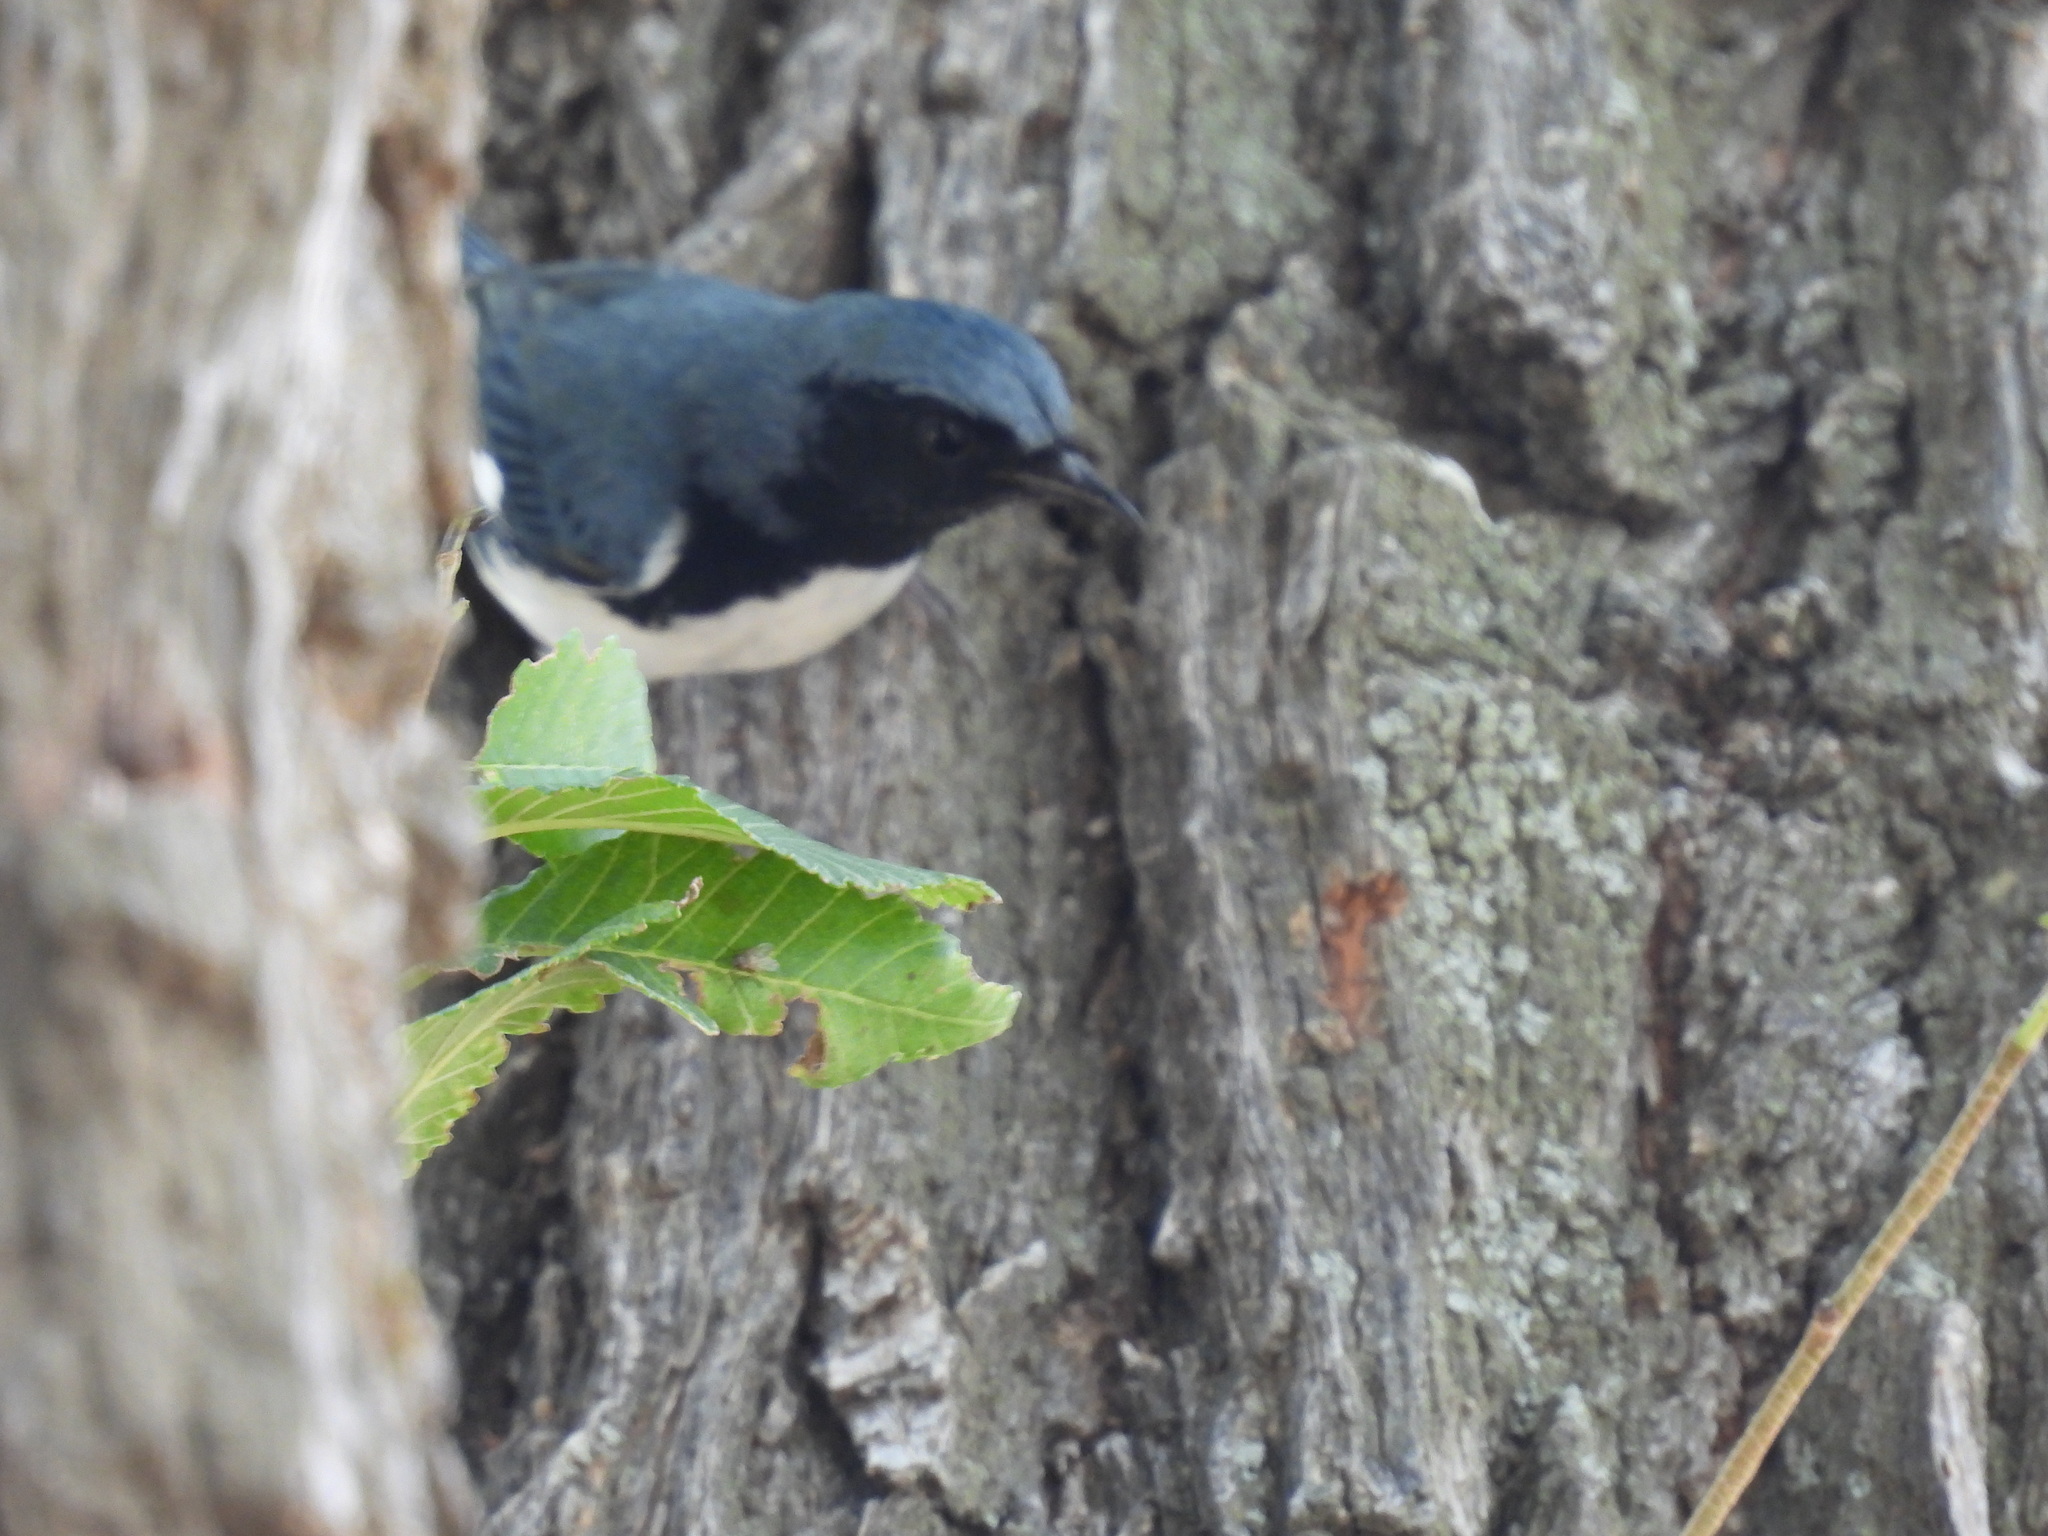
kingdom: Animalia
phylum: Chordata
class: Aves
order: Passeriformes
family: Parulidae
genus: Setophaga
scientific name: Setophaga caerulescens
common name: Black-throated blue warbler
